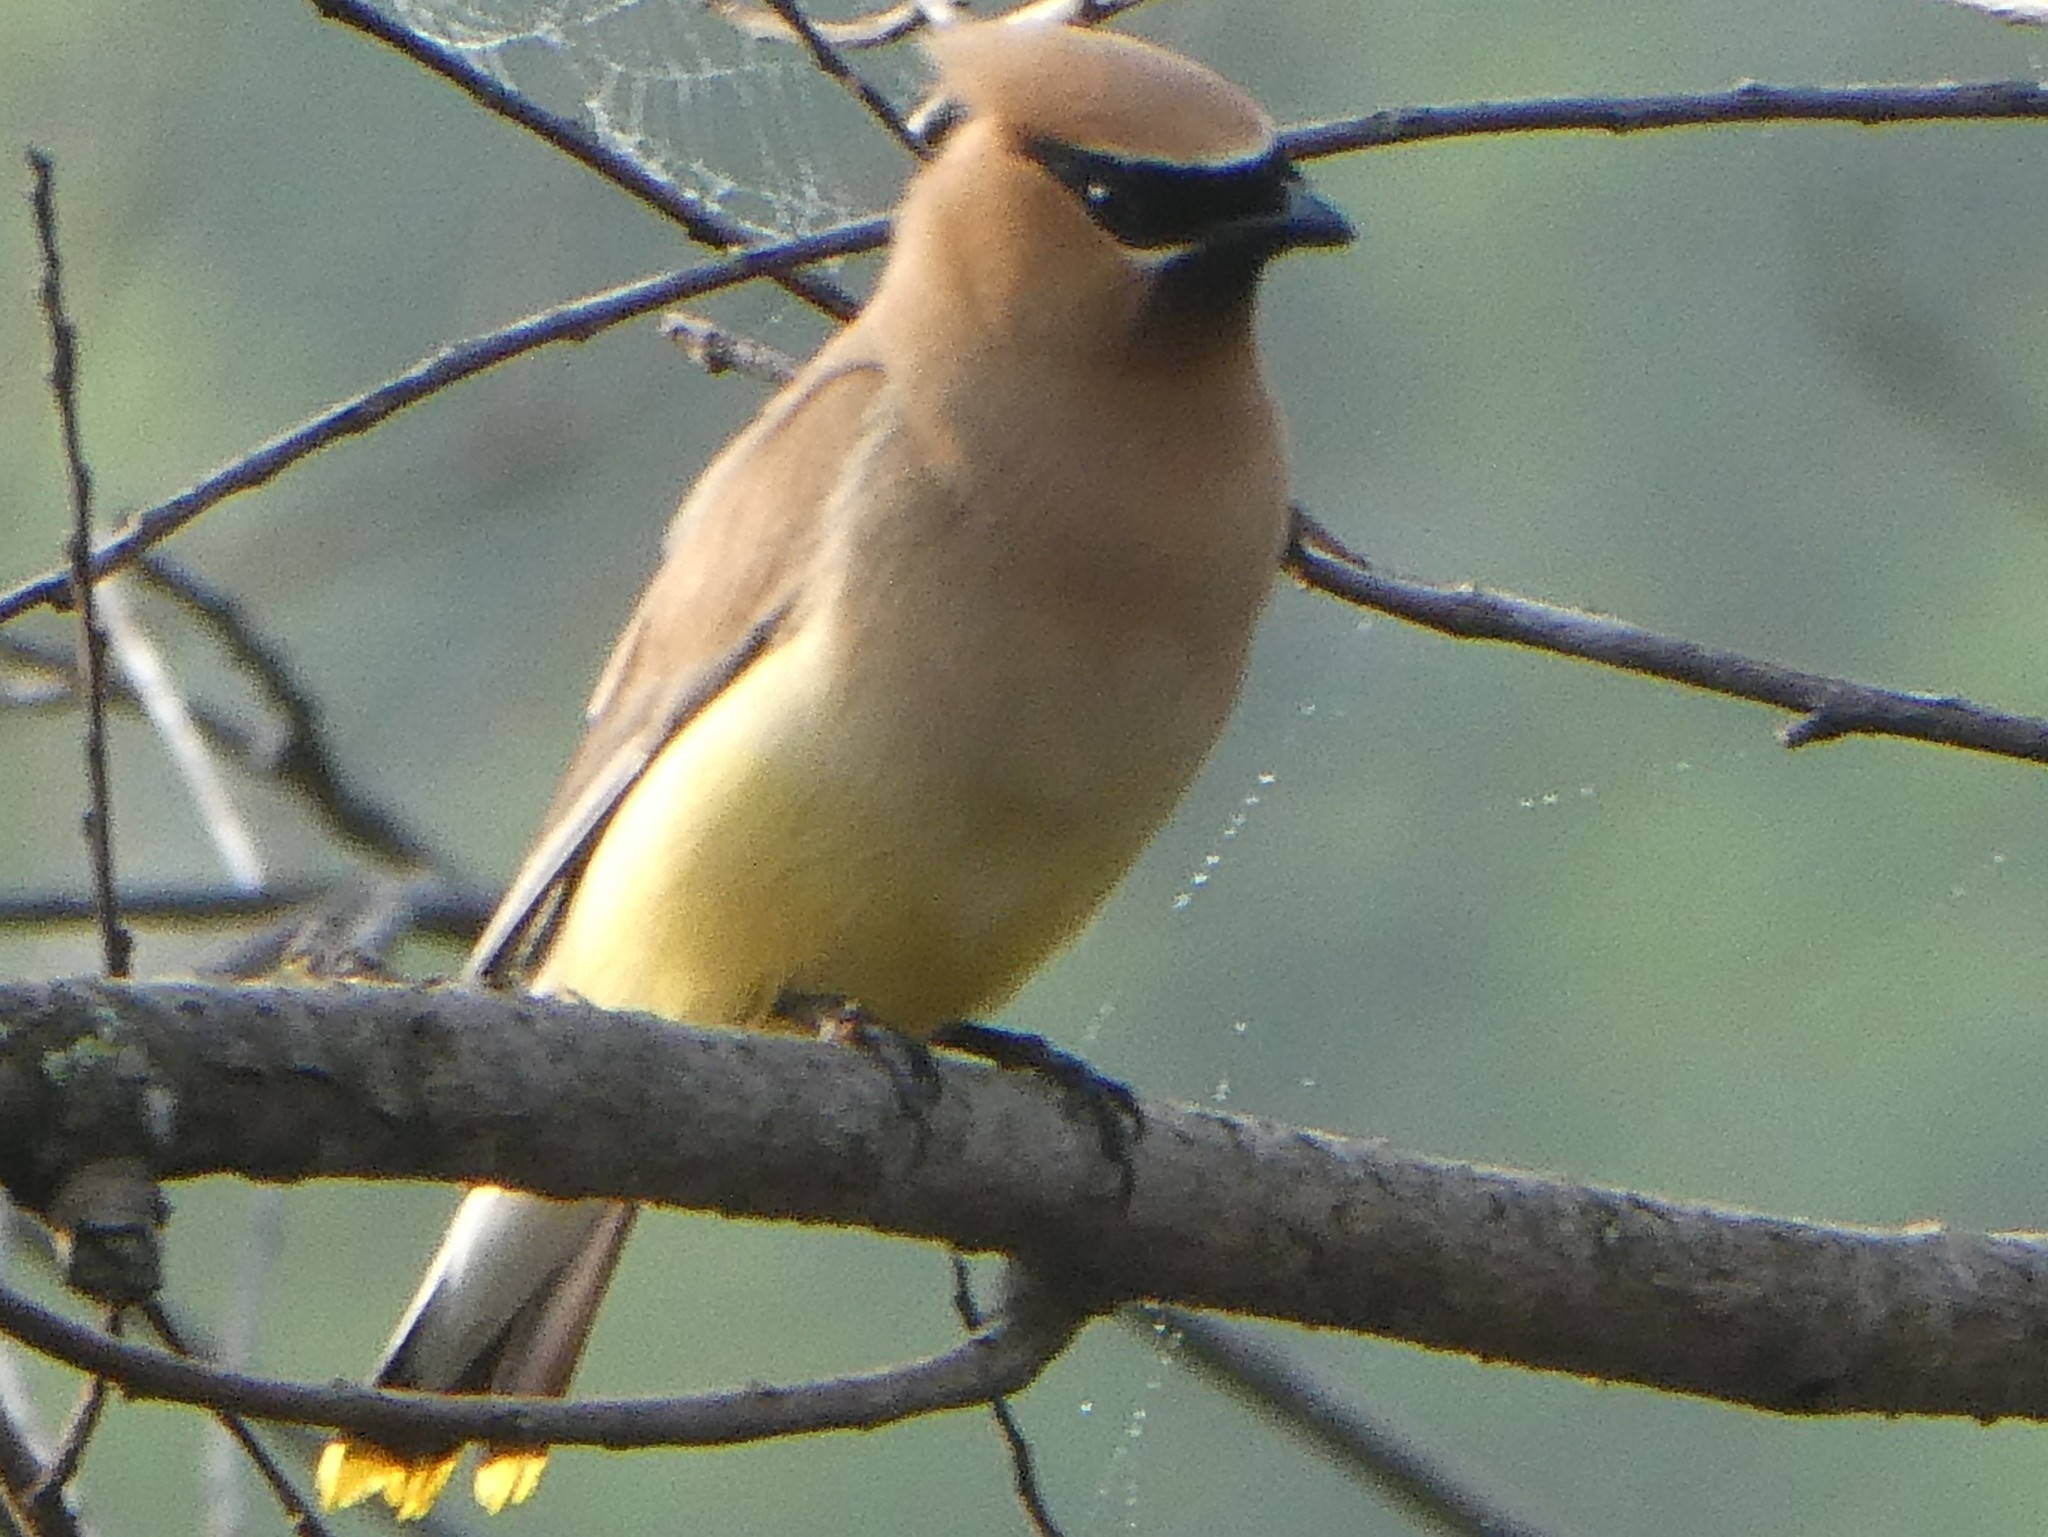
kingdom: Animalia
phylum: Chordata
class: Aves
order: Passeriformes
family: Bombycillidae
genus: Bombycilla
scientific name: Bombycilla cedrorum
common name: Cedar waxwing
